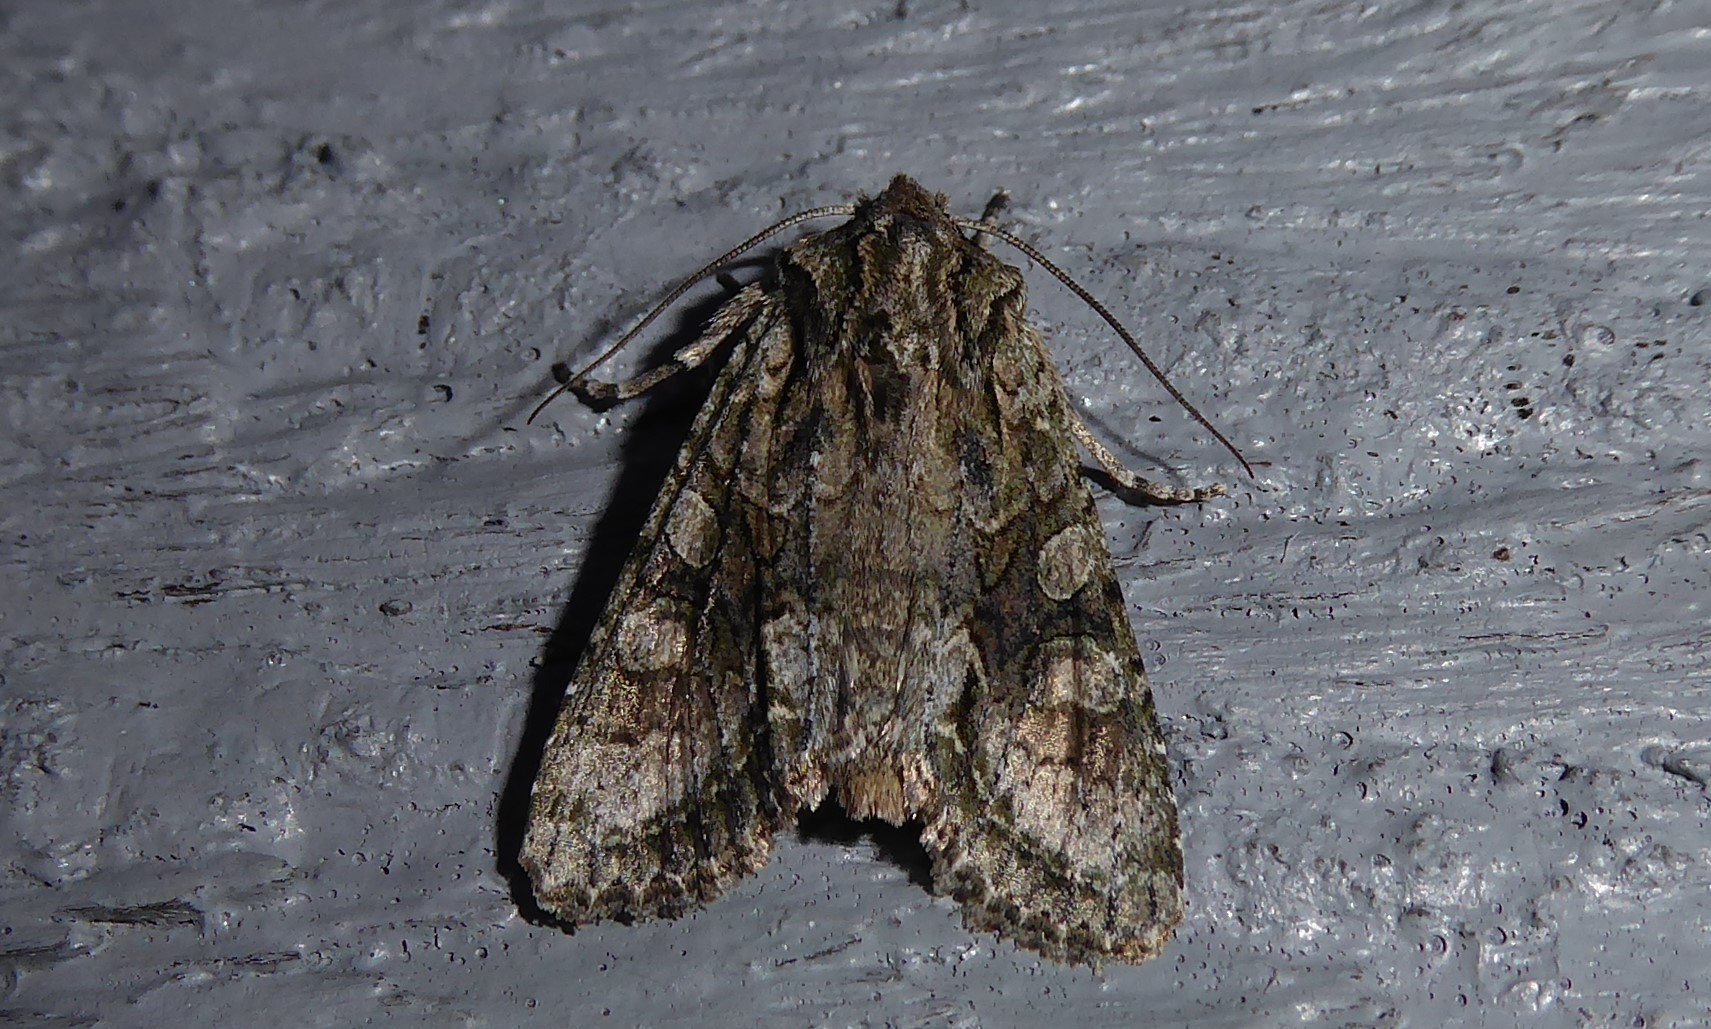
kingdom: Animalia
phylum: Arthropoda
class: Insecta
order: Lepidoptera
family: Noctuidae
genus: Ichneutica
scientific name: Ichneutica mutans
